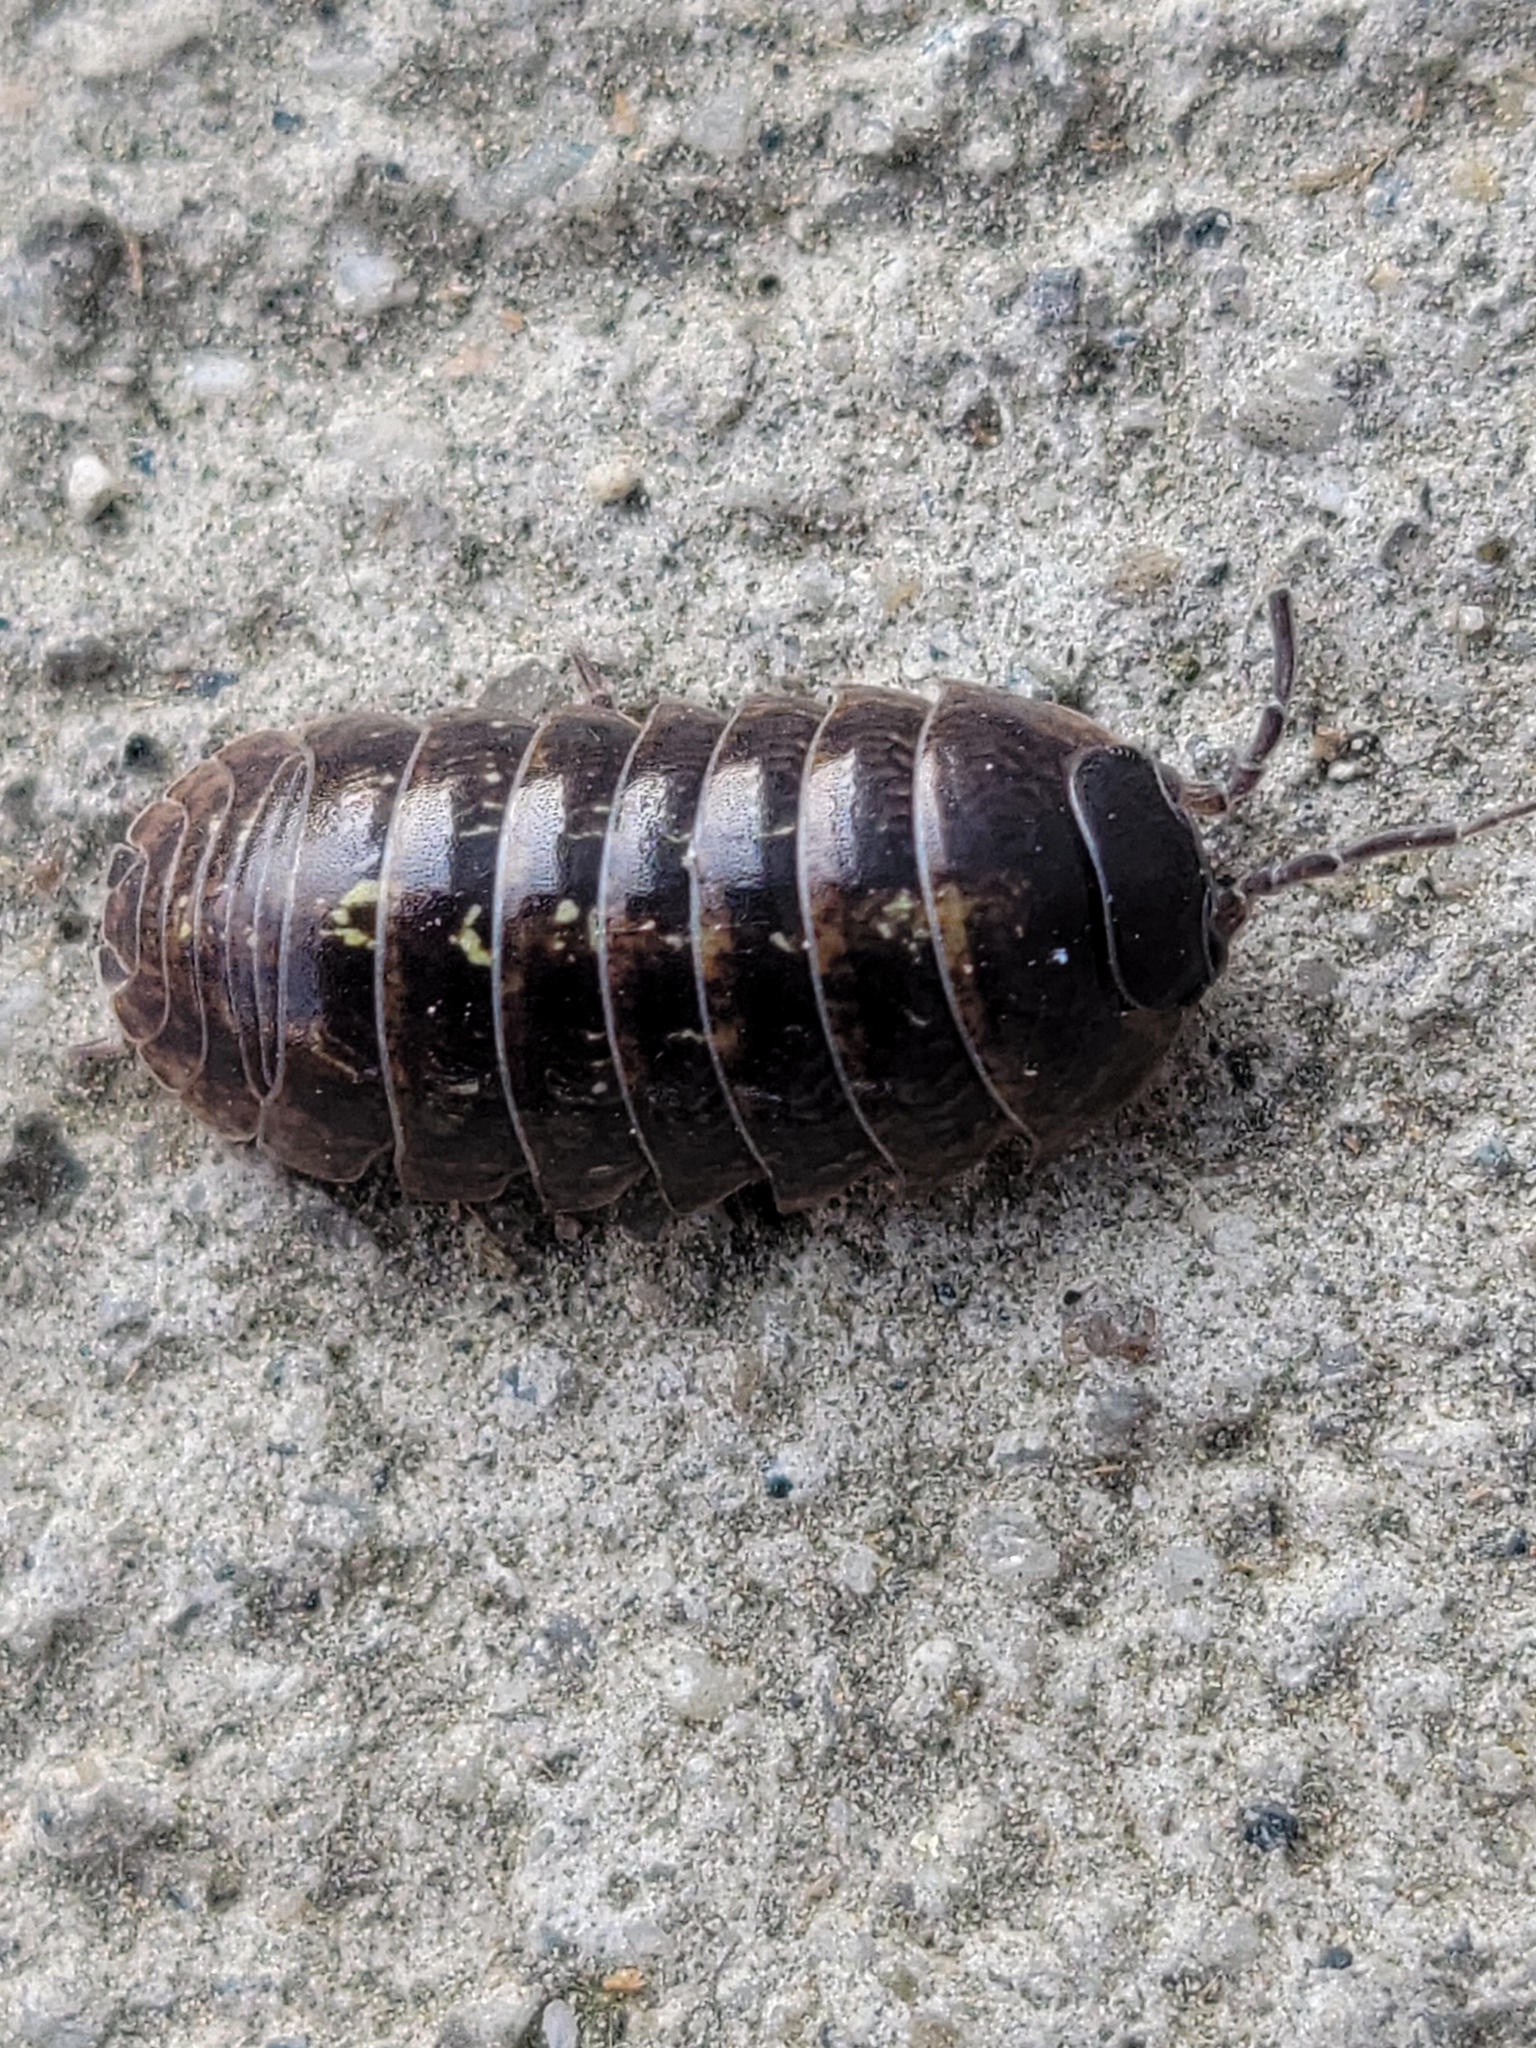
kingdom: Animalia
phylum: Arthropoda
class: Malacostraca
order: Isopoda
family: Armadillidiidae
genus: Armadillidium
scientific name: Armadillidium vulgare
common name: Common pill woodlouse
